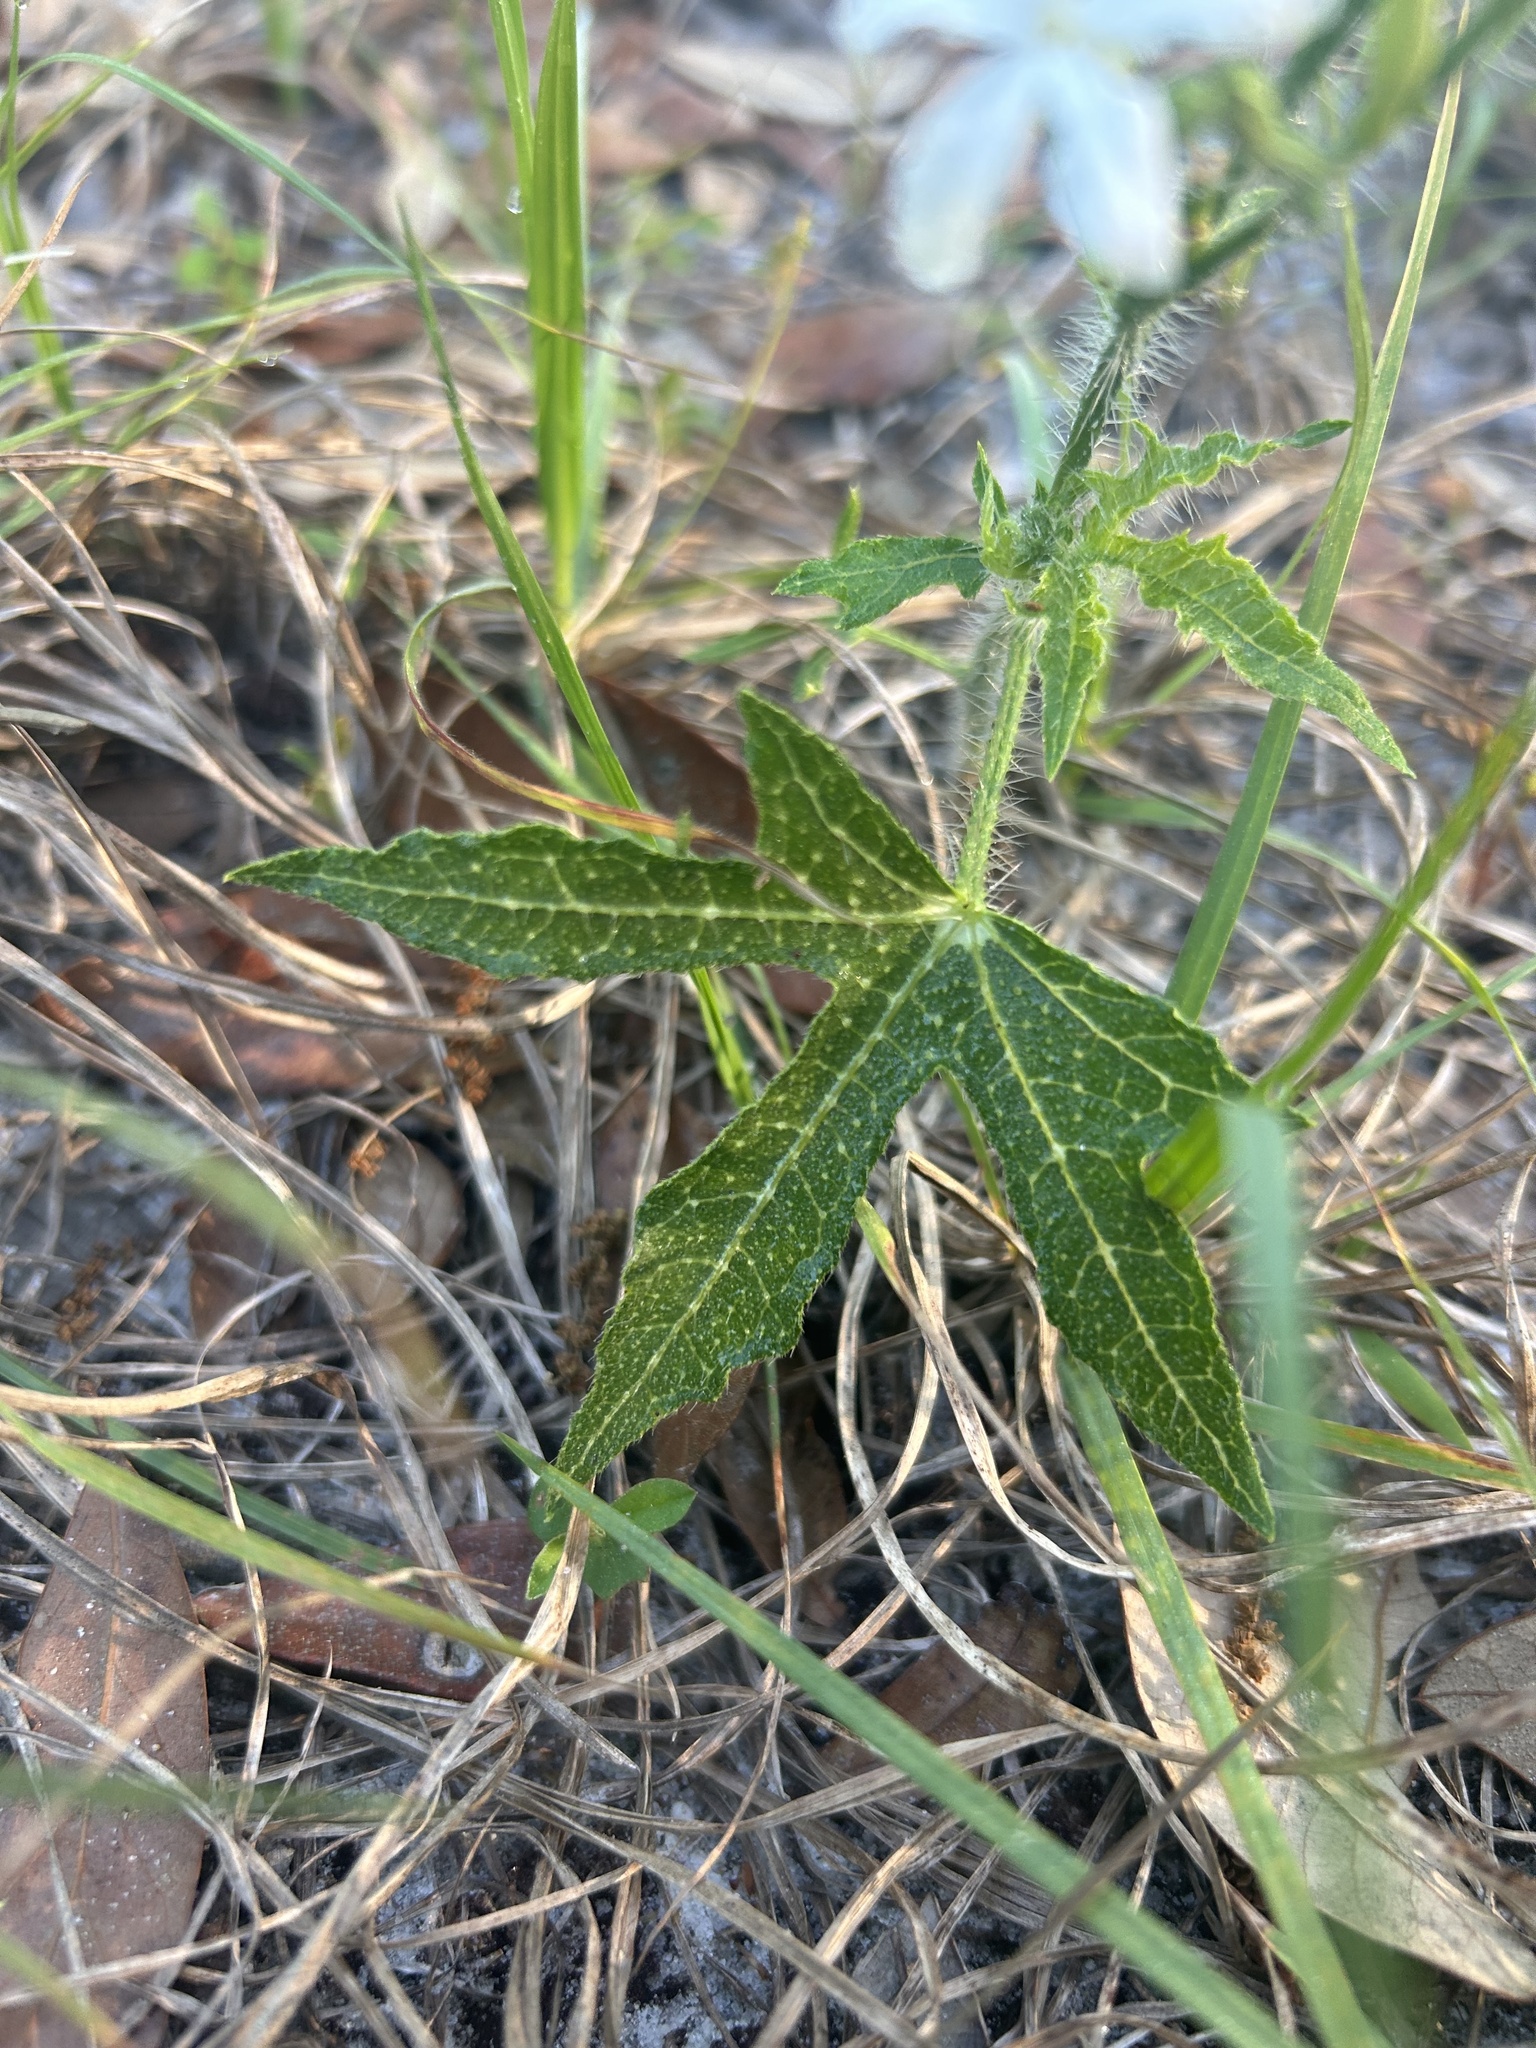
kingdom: Plantae
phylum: Tracheophyta
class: Magnoliopsida
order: Malpighiales
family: Euphorbiaceae
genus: Cnidoscolus
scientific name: Cnidoscolus stimulosus
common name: Bull-nettle
